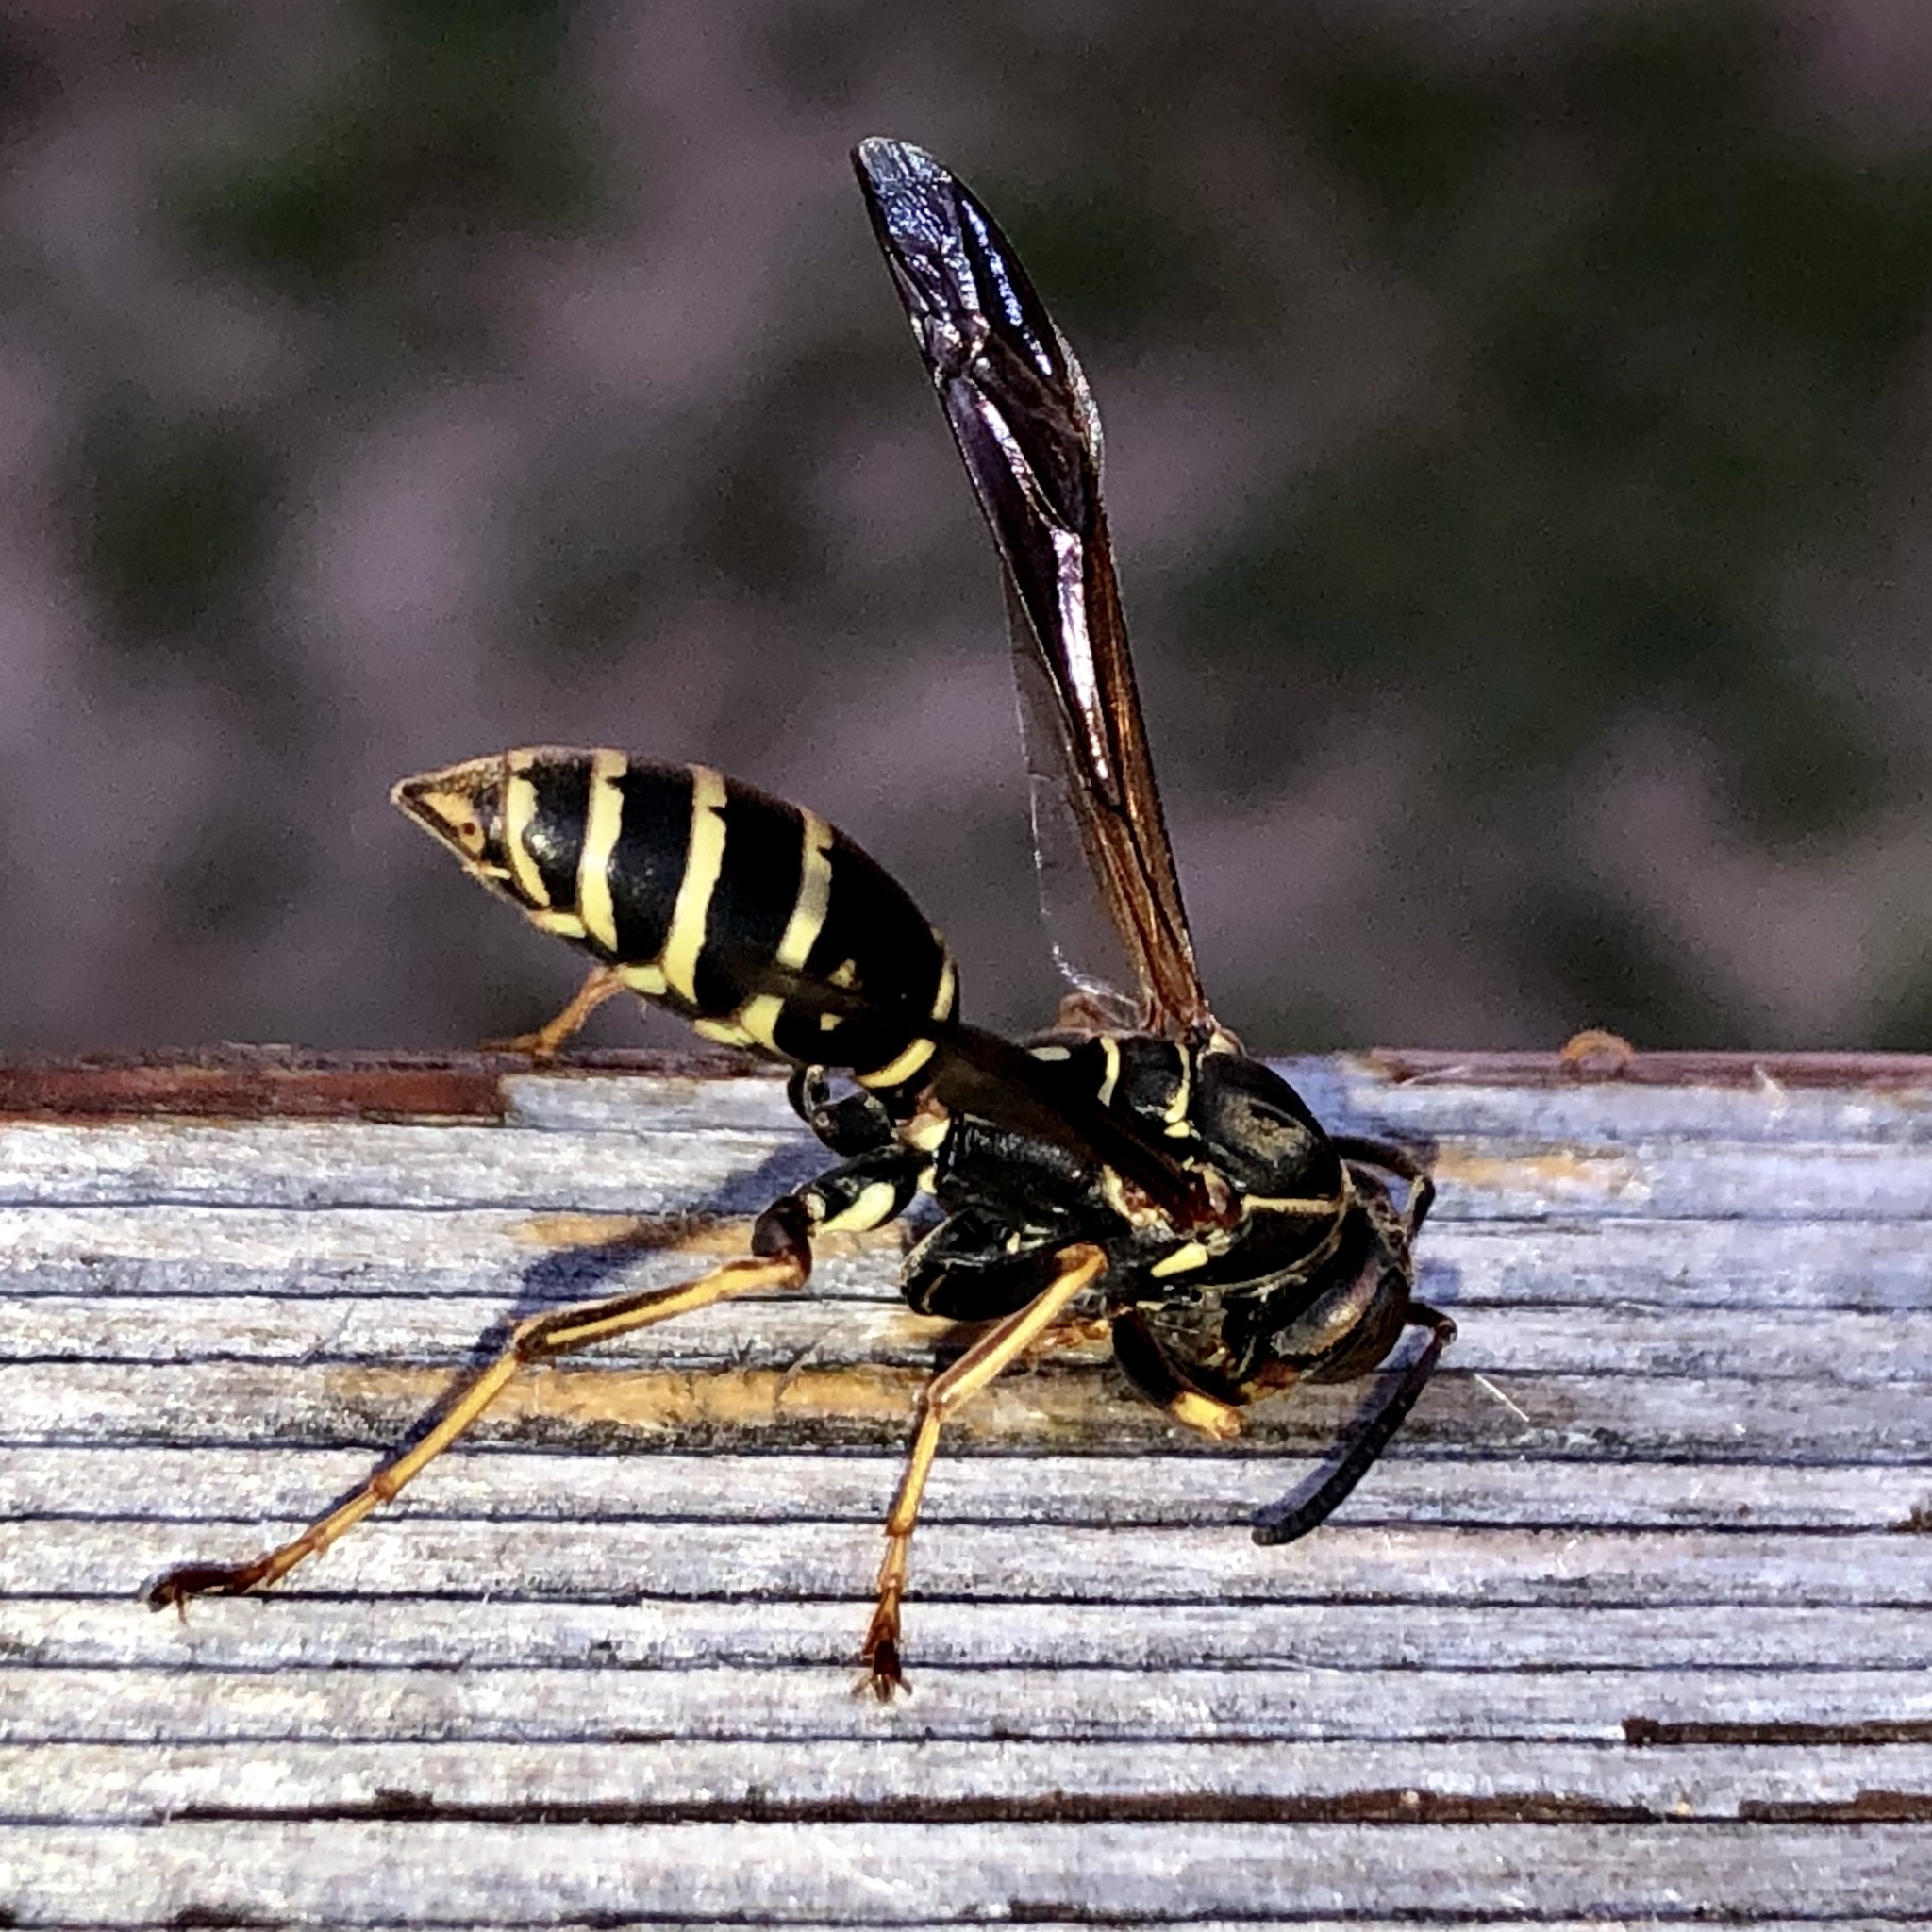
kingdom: Animalia
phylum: Arthropoda
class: Insecta
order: Hymenoptera
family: Eumenidae
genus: Polistes
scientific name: Polistes fuscatus
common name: Dark paper wasp
